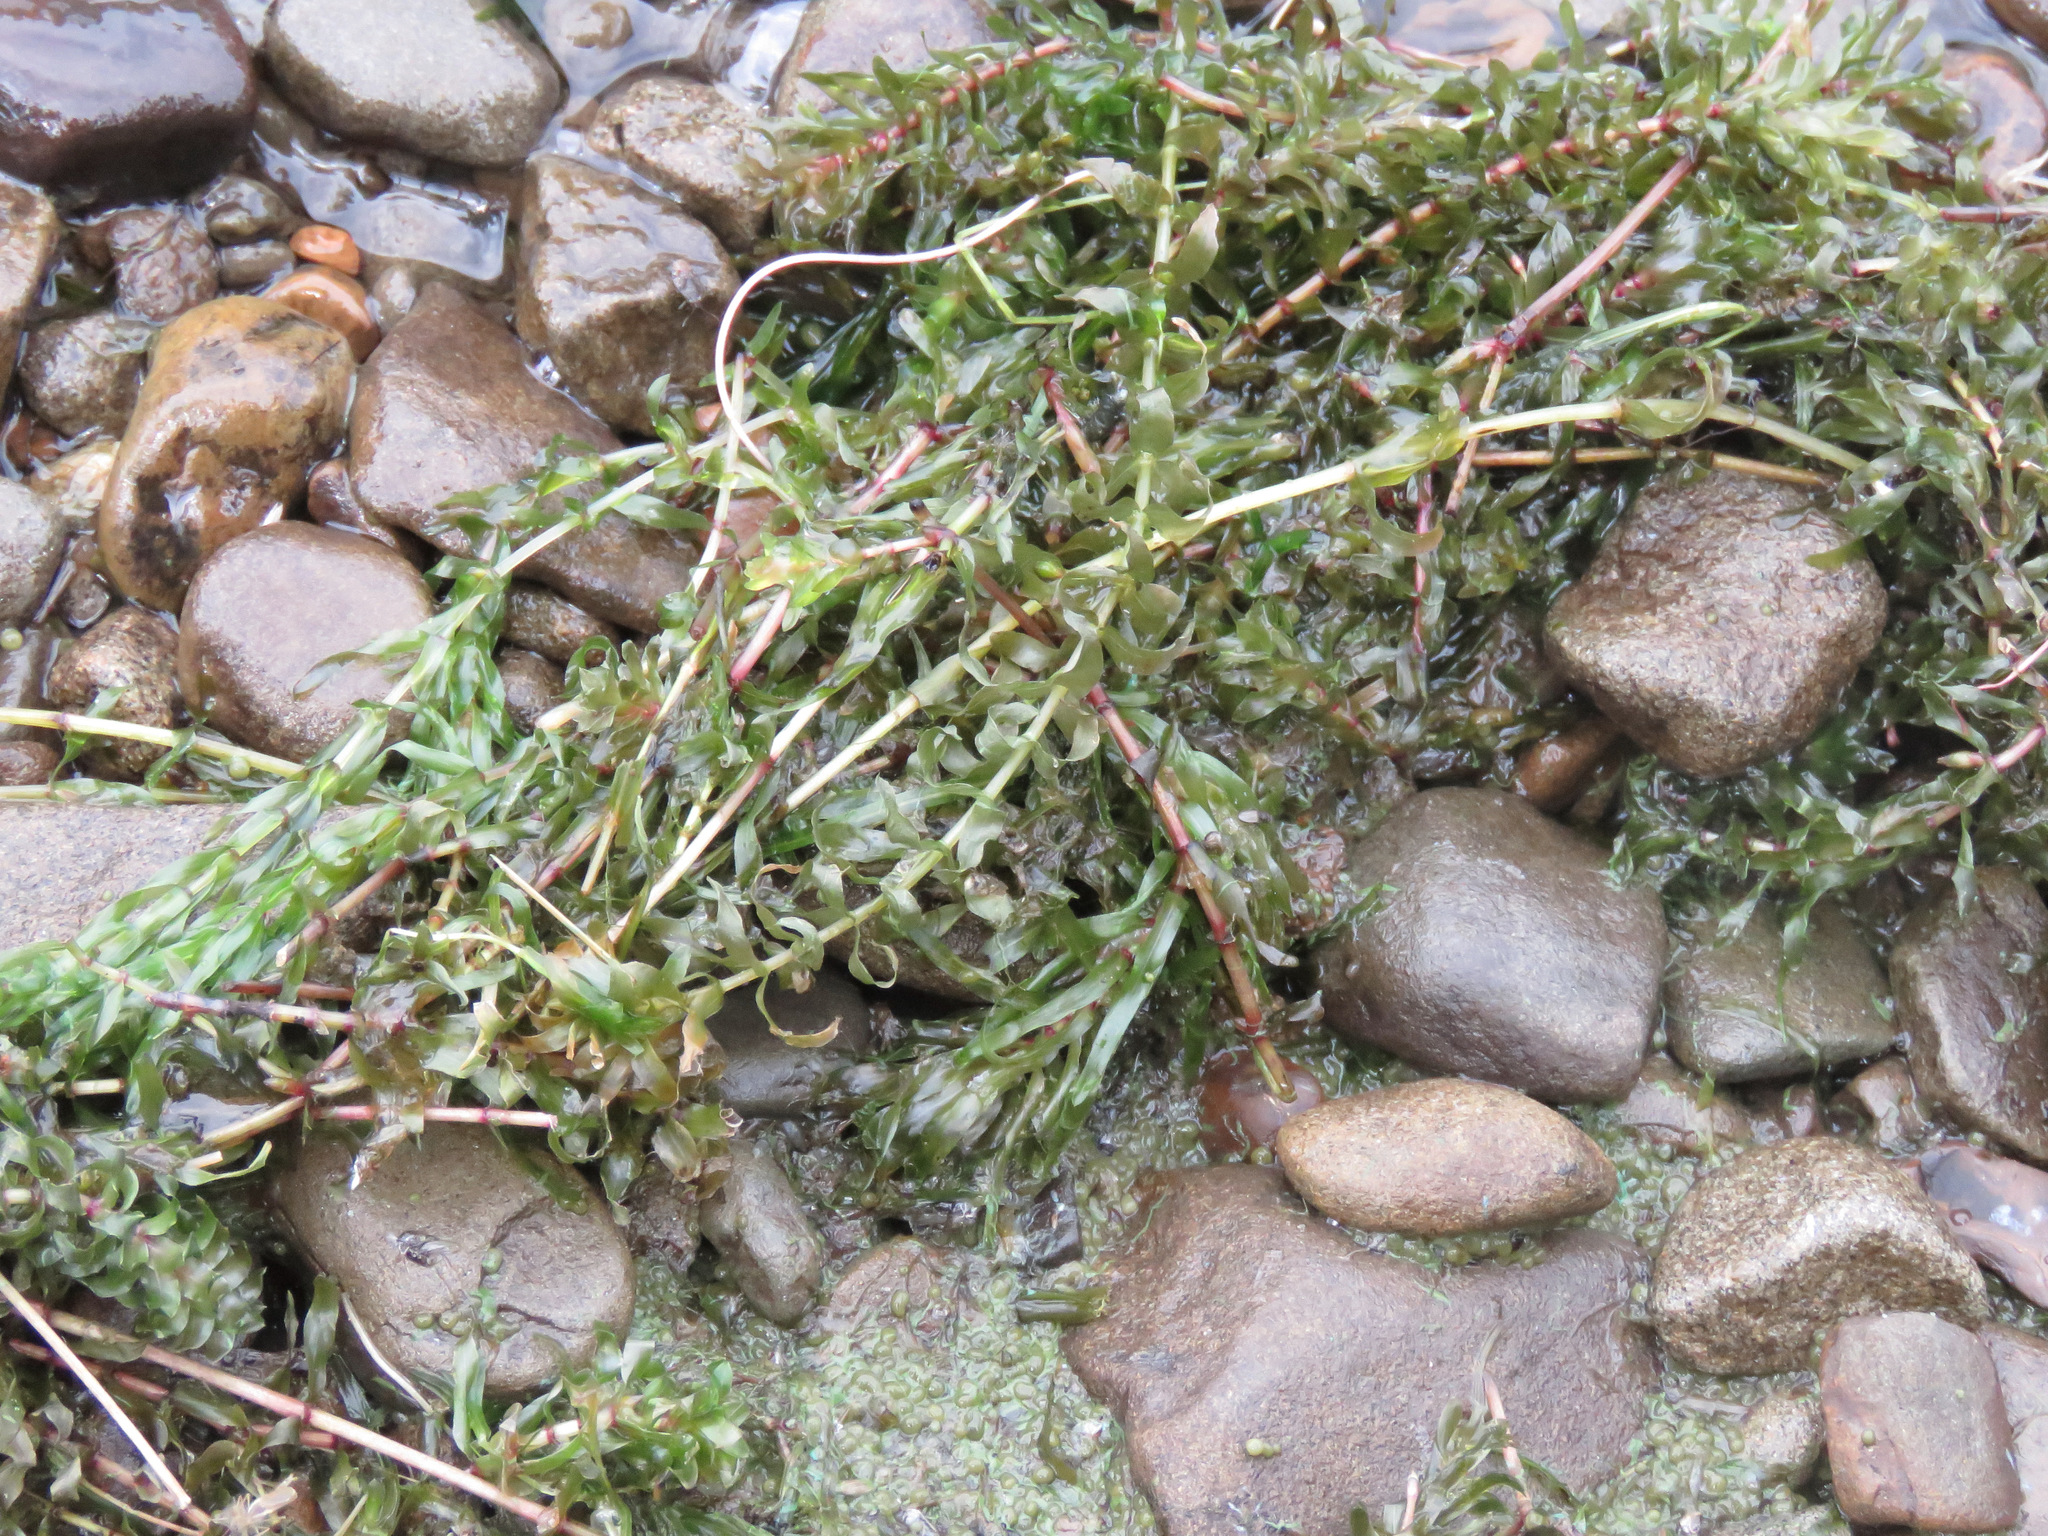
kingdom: Plantae
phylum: Tracheophyta
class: Liliopsida
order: Alismatales
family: Hydrocharitaceae
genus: Elodea
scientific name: Elodea canadensis
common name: Canadian waterweed
